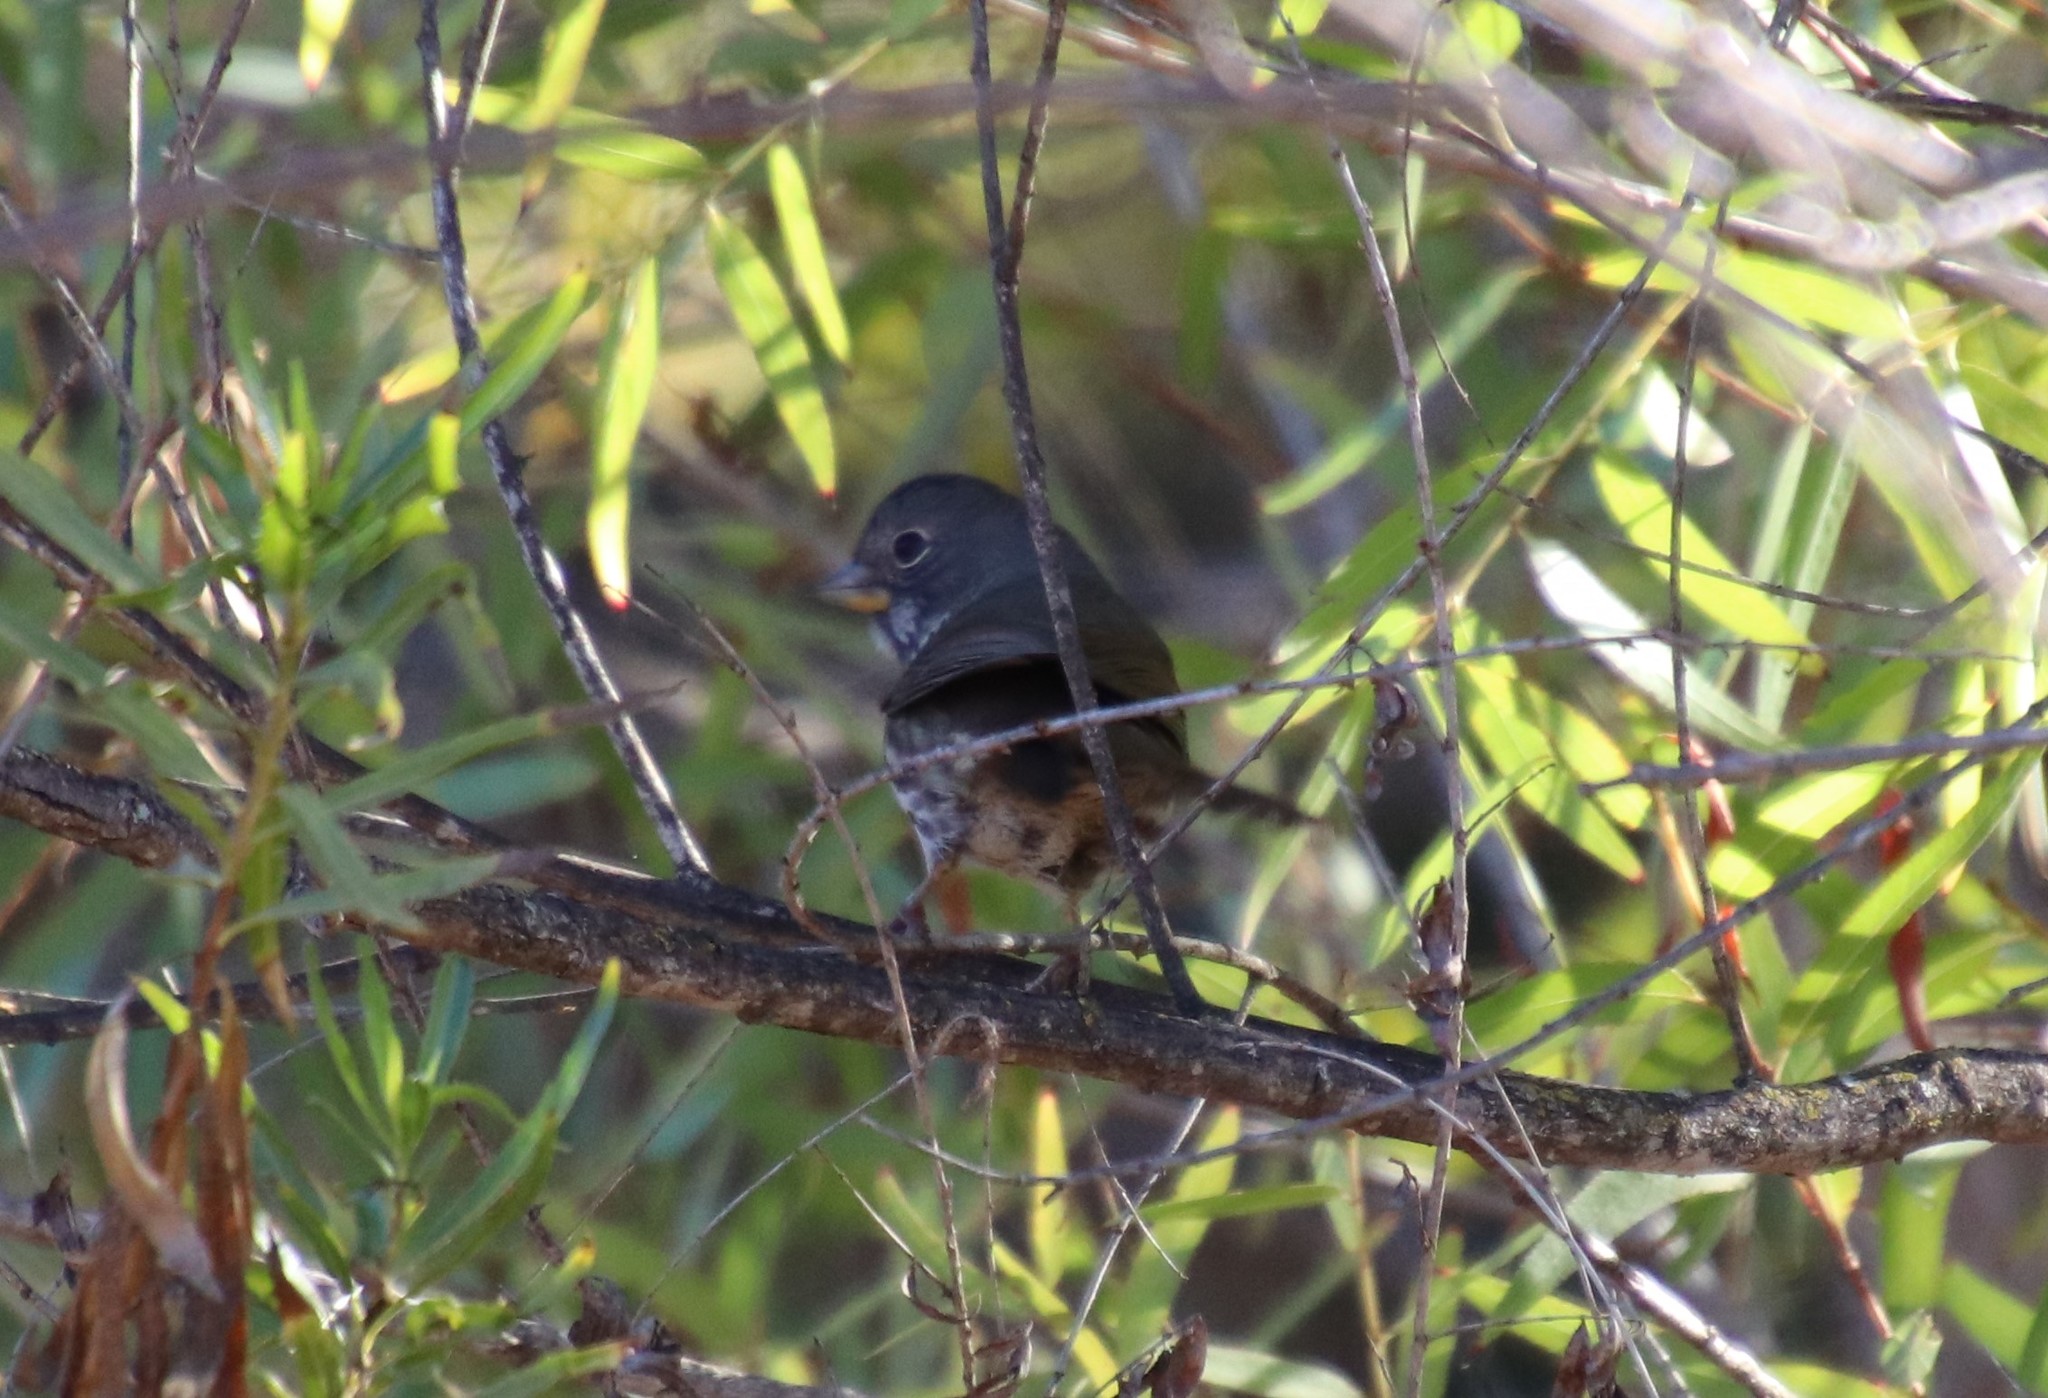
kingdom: Animalia
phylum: Chordata
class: Aves
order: Passeriformes
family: Passerellidae
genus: Passerella
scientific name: Passerella iliaca
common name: Fox sparrow
